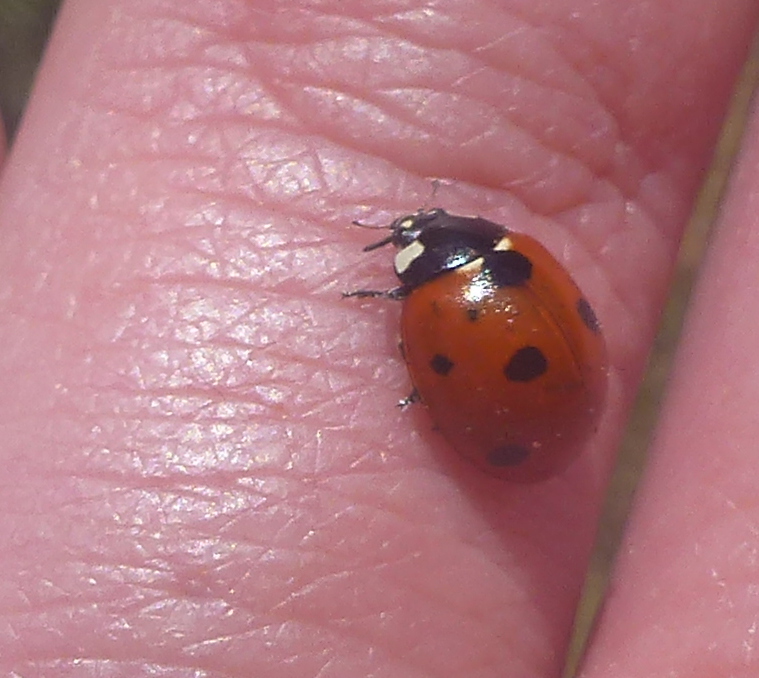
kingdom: Animalia
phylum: Arthropoda
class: Insecta
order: Coleoptera
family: Coccinellidae
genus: Coccinella
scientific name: Coccinella septempunctata
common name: Sevenspotted lady beetle
